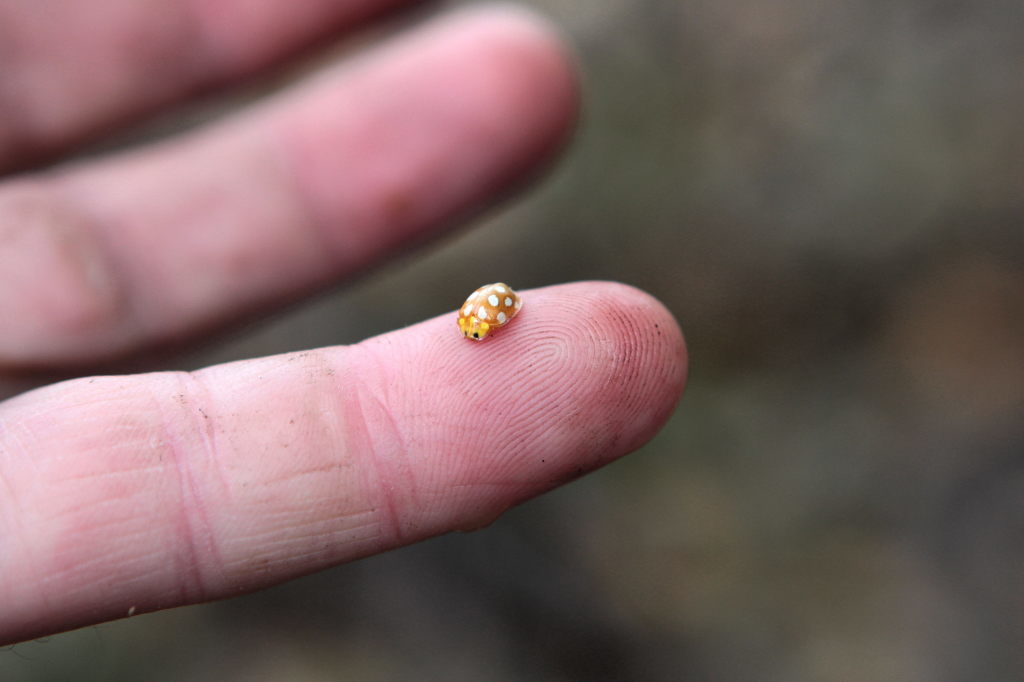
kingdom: Animalia
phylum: Arthropoda
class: Insecta
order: Coleoptera
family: Coccinellidae
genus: Vibidia
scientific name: Vibidia duodecimguttata
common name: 12-spot ladybird
